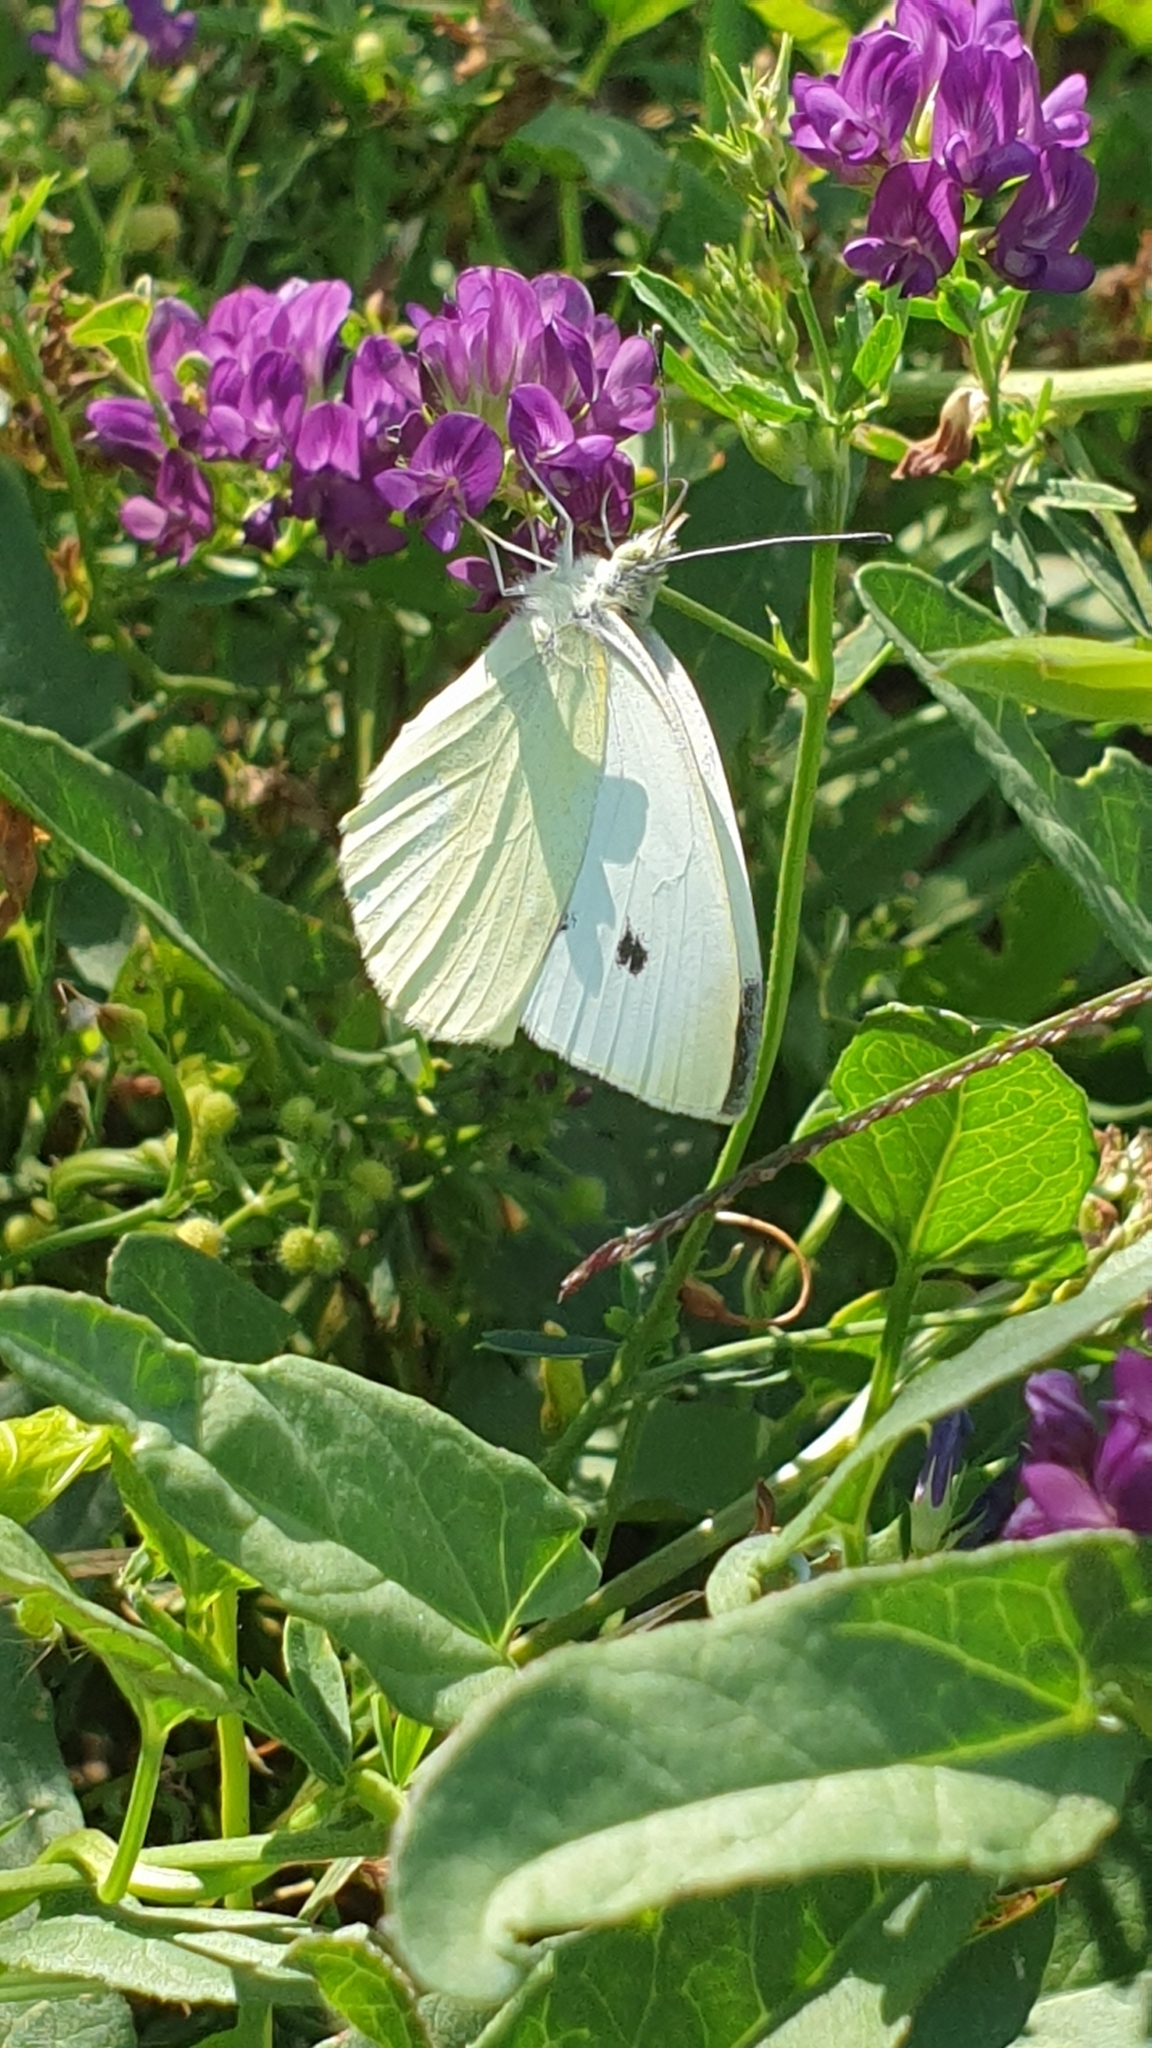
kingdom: Animalia
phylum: Arthropoda
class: Insecta
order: Lepidoptera
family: Pieridae
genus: Pieris
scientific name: Pieris rapae
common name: Small white
